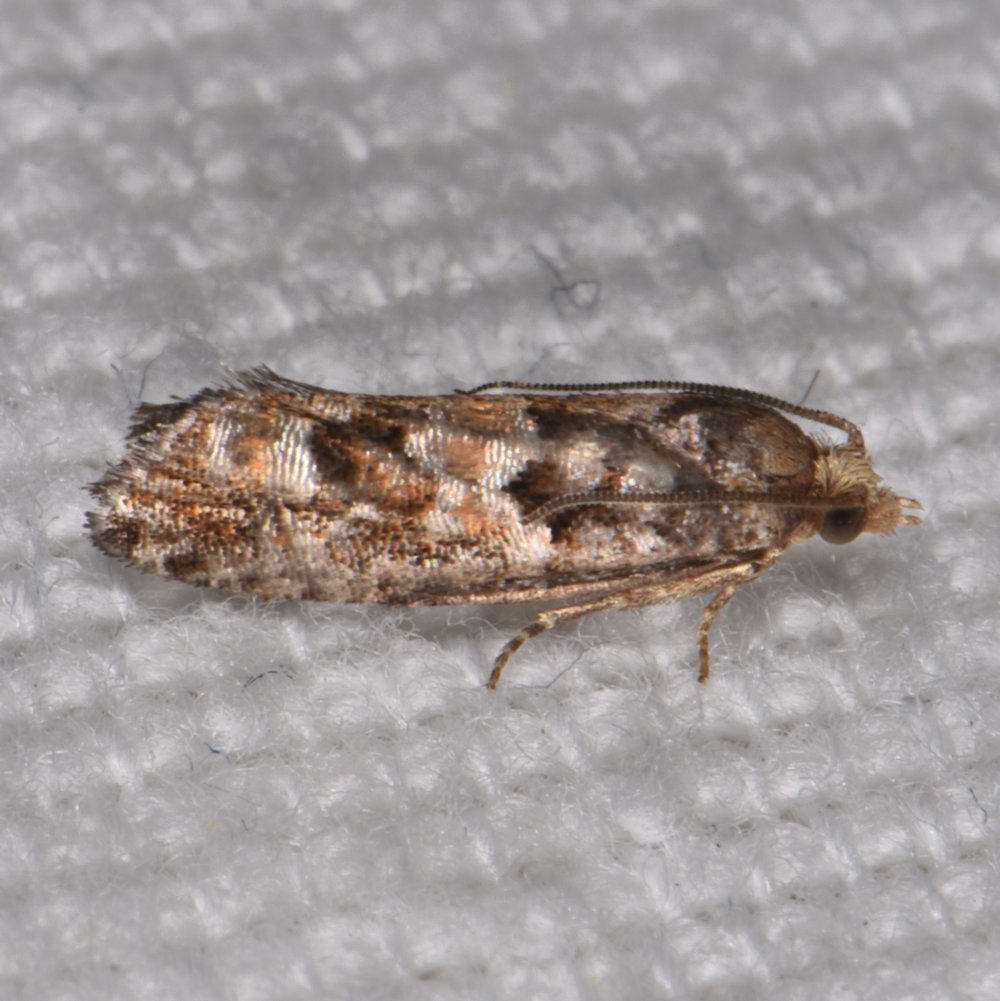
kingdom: Animalia
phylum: Arthropoda
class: Insecta
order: Lepidoptera
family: Tortricidae
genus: Eucopina
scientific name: Eucopina tocullionana
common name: White pinecone borer moth
